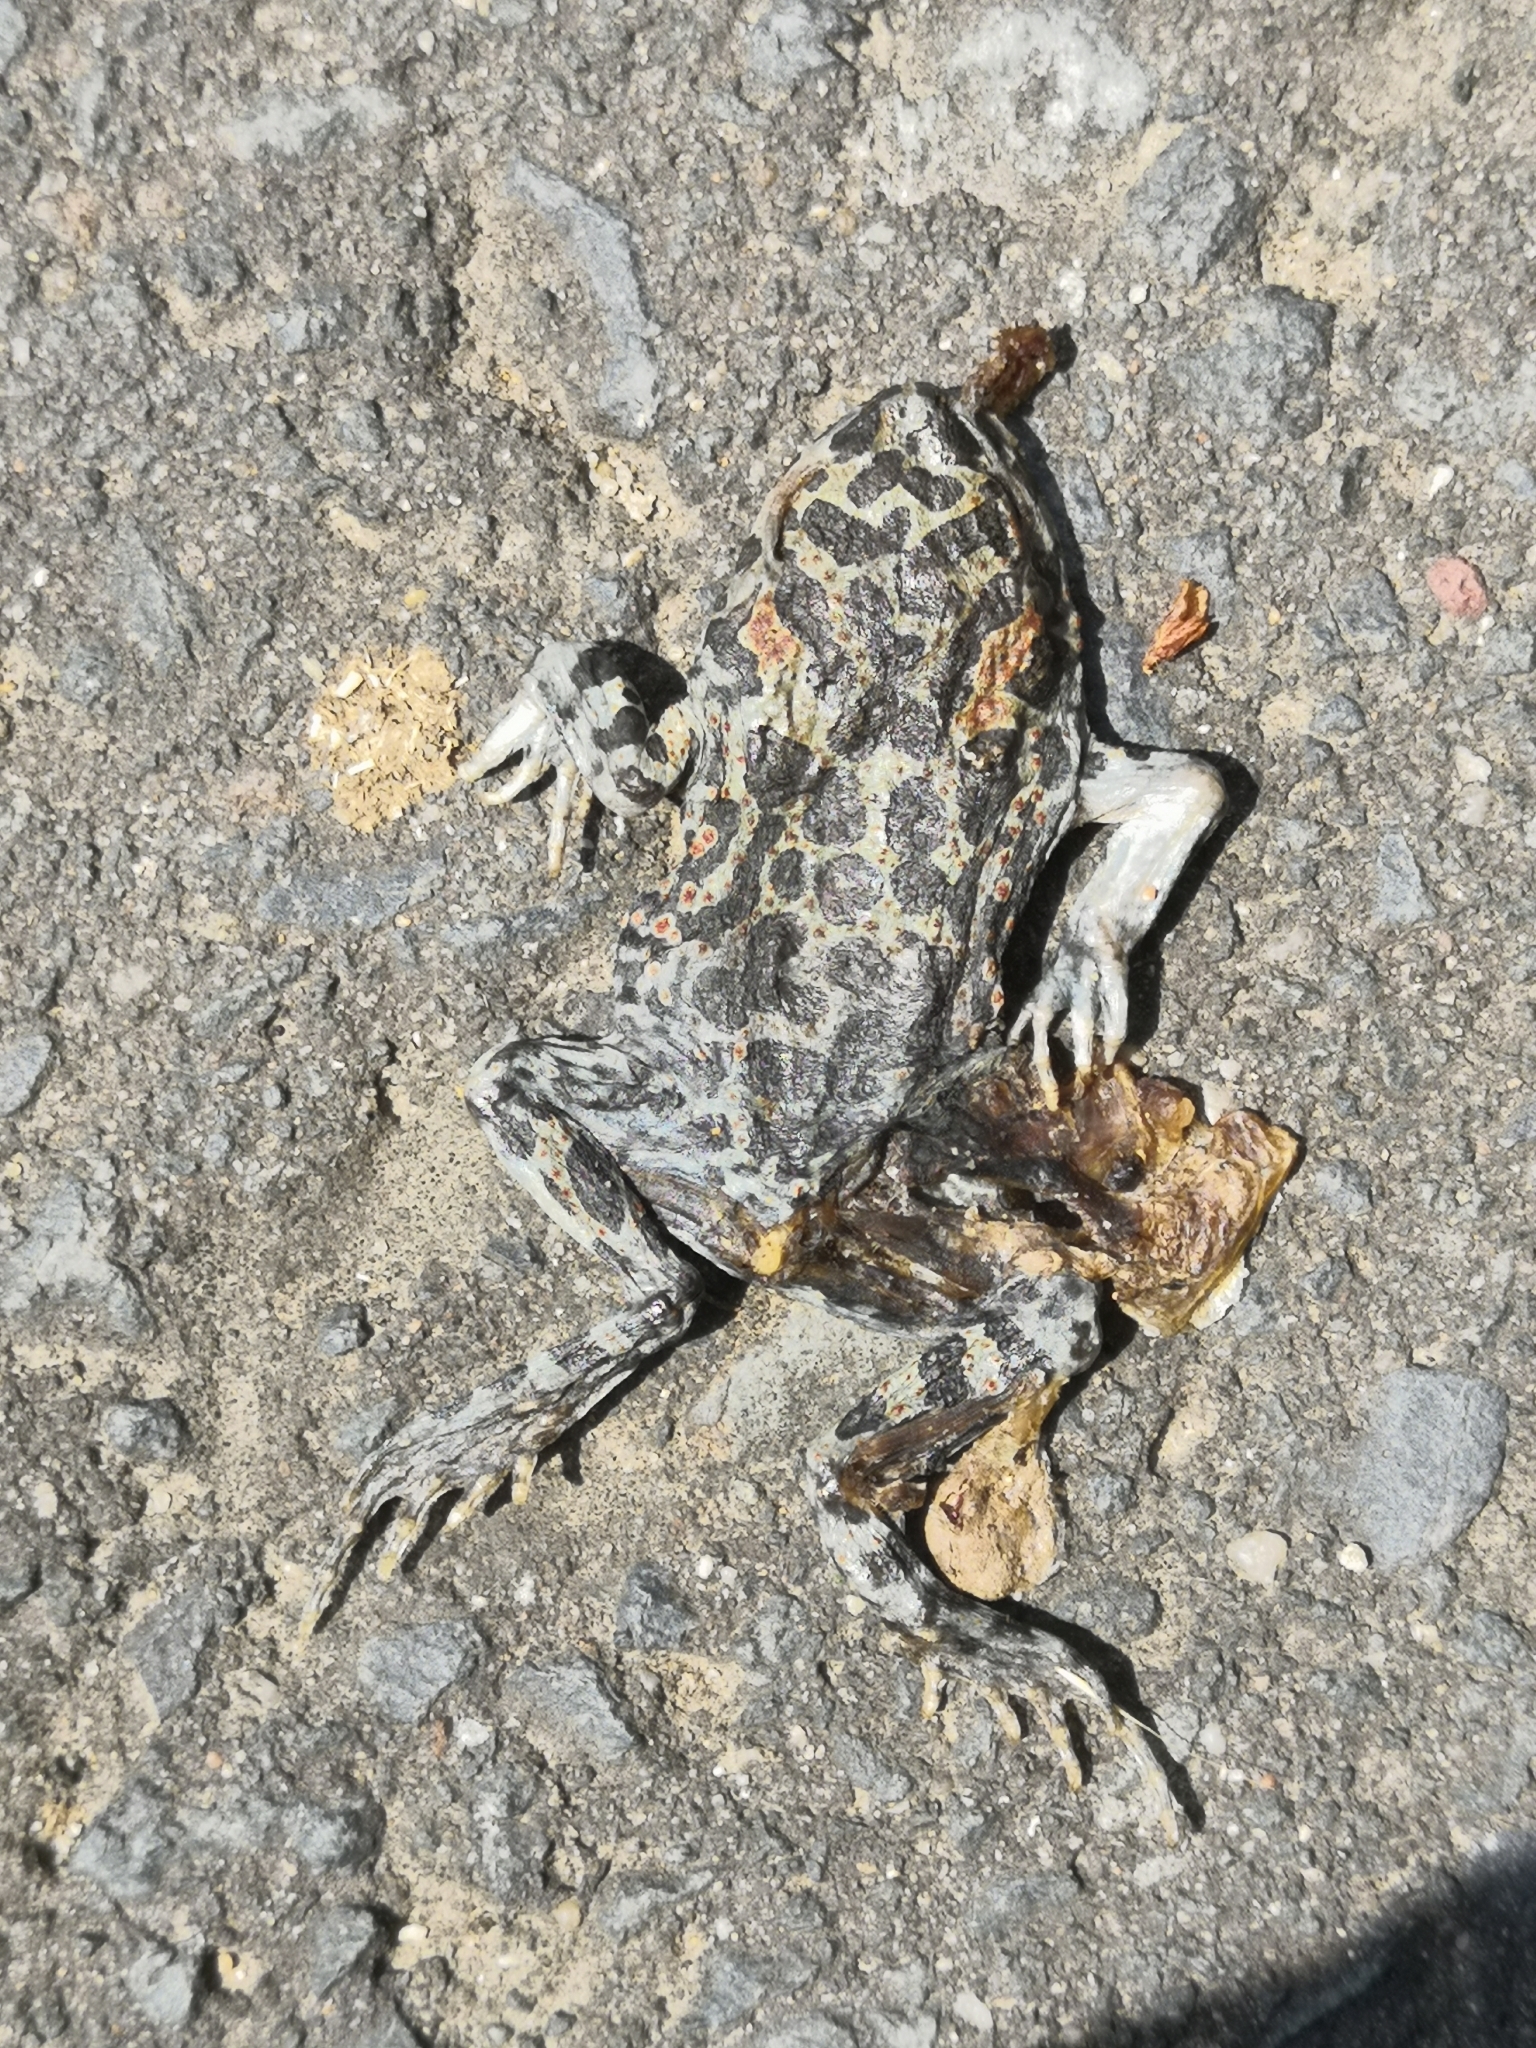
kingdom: Animalia
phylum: Chordata
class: Amphibia
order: Anura
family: Bufonidae
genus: Bufotes
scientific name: Bufotes viridis
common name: European green toad
